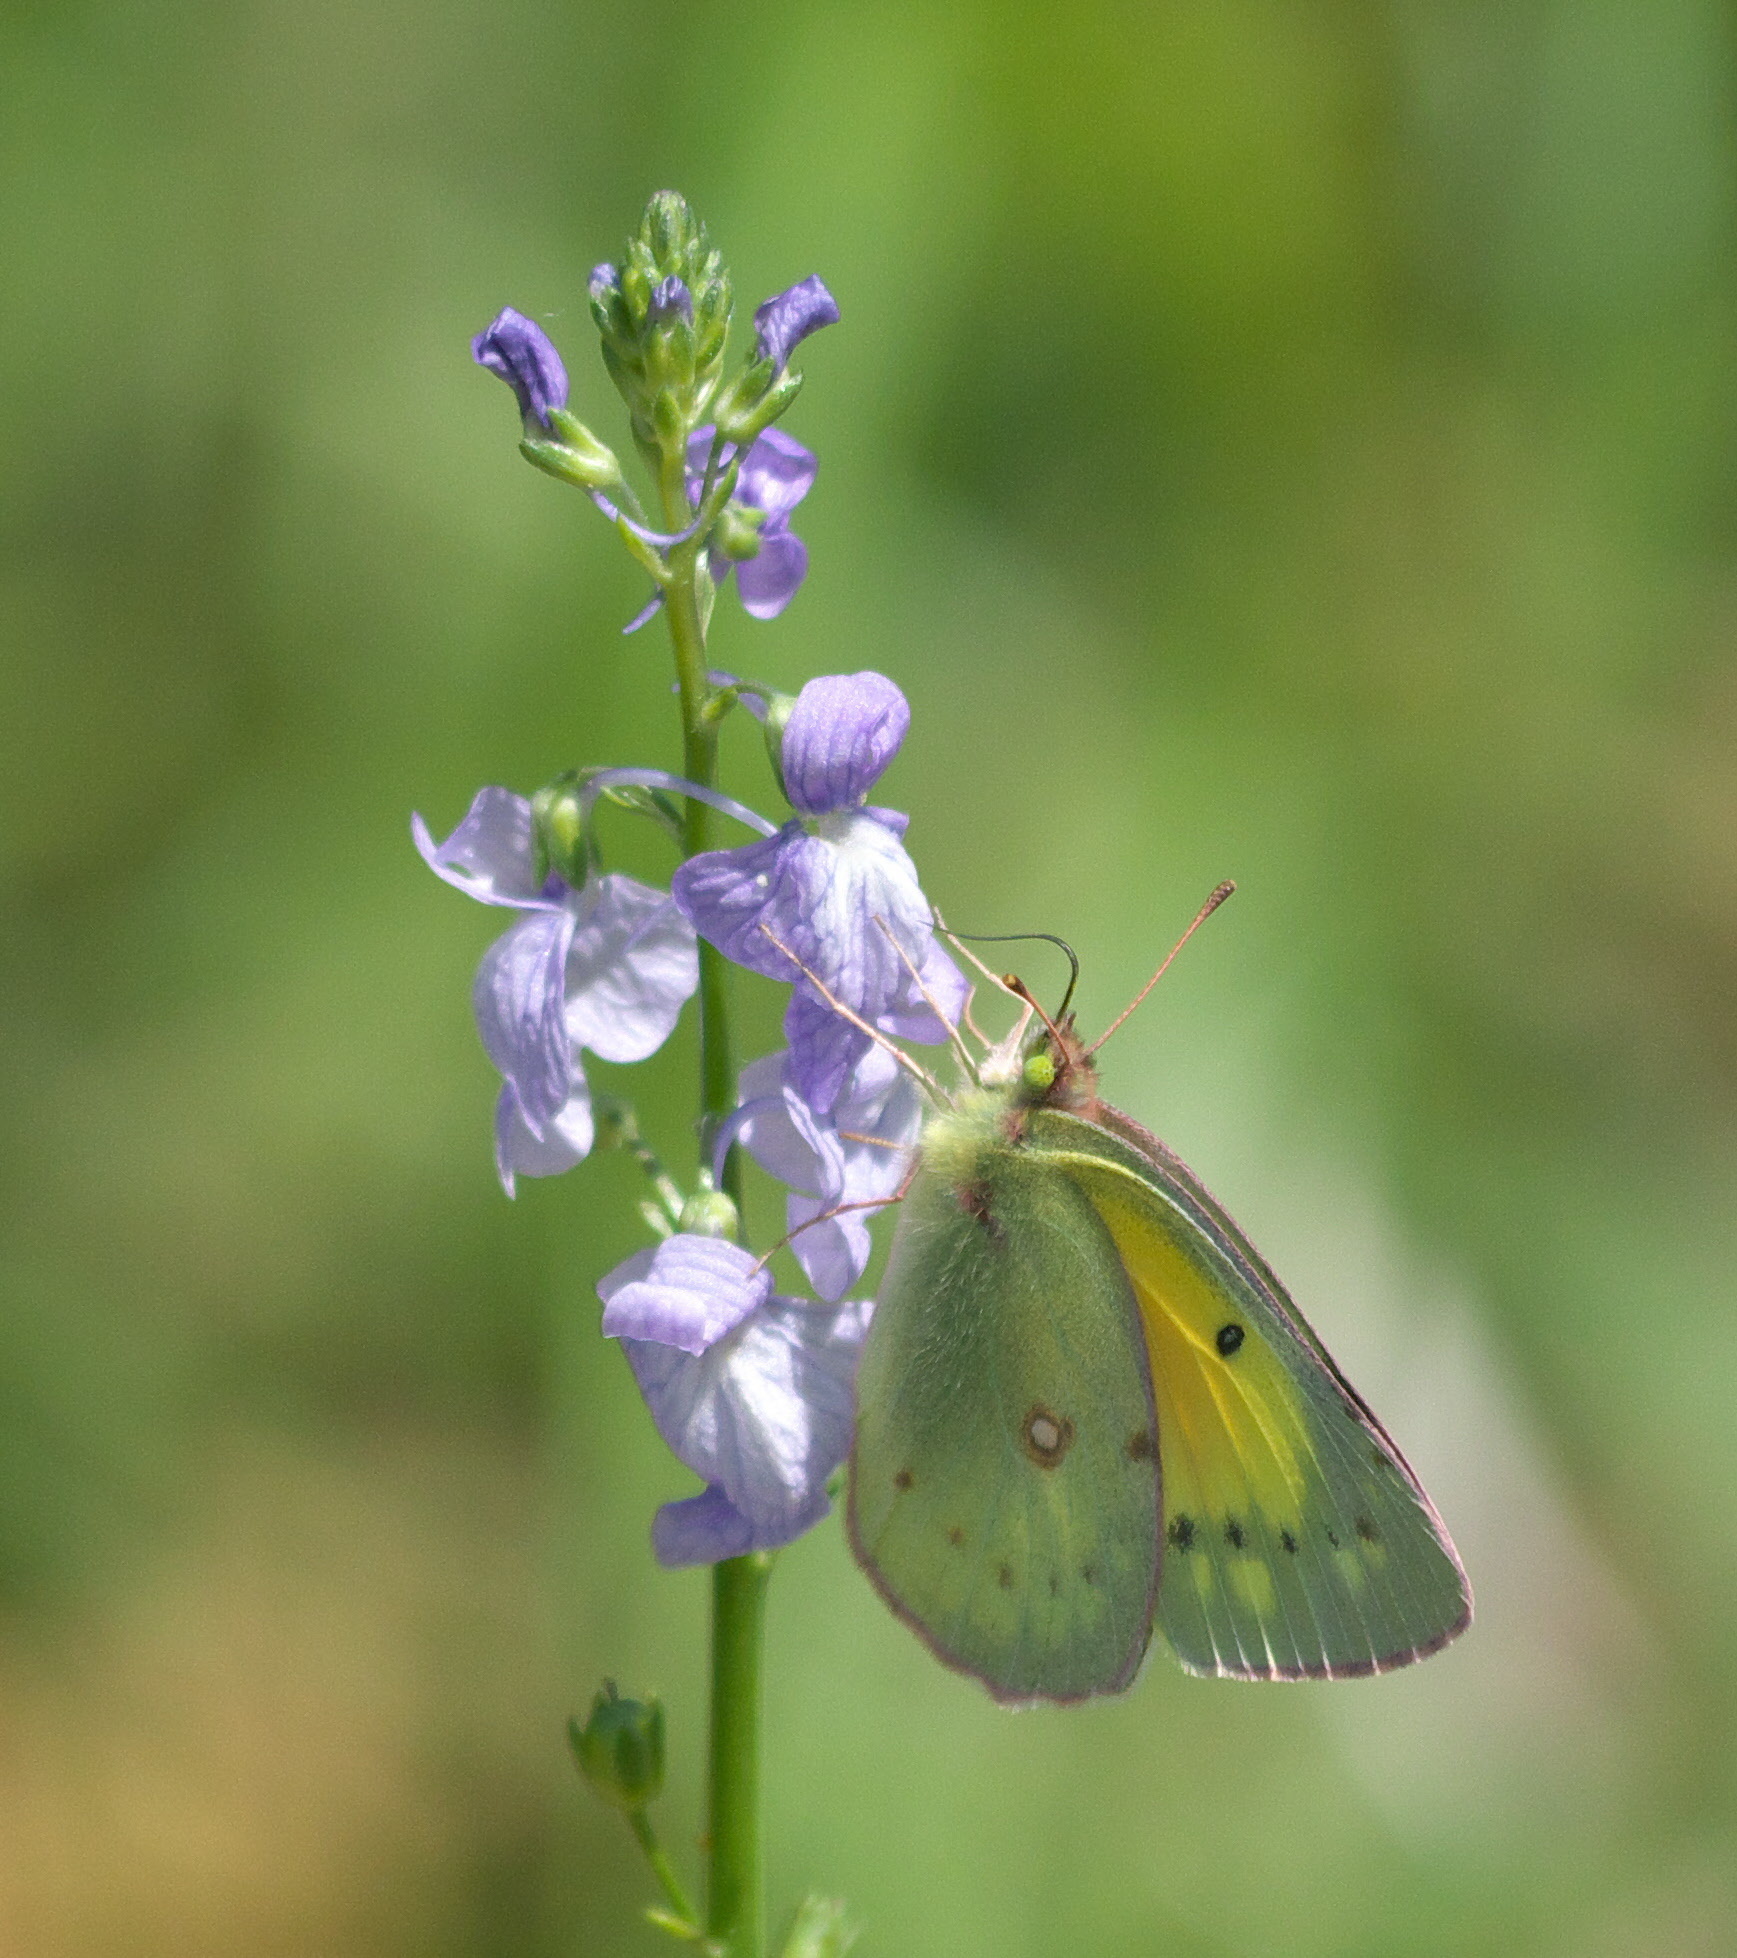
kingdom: Animalia
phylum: Arthropoda
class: Insecta
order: Lepidoptera
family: Pieridae
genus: Colias
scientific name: Colias eurytheme
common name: Alfalfa butterfly
